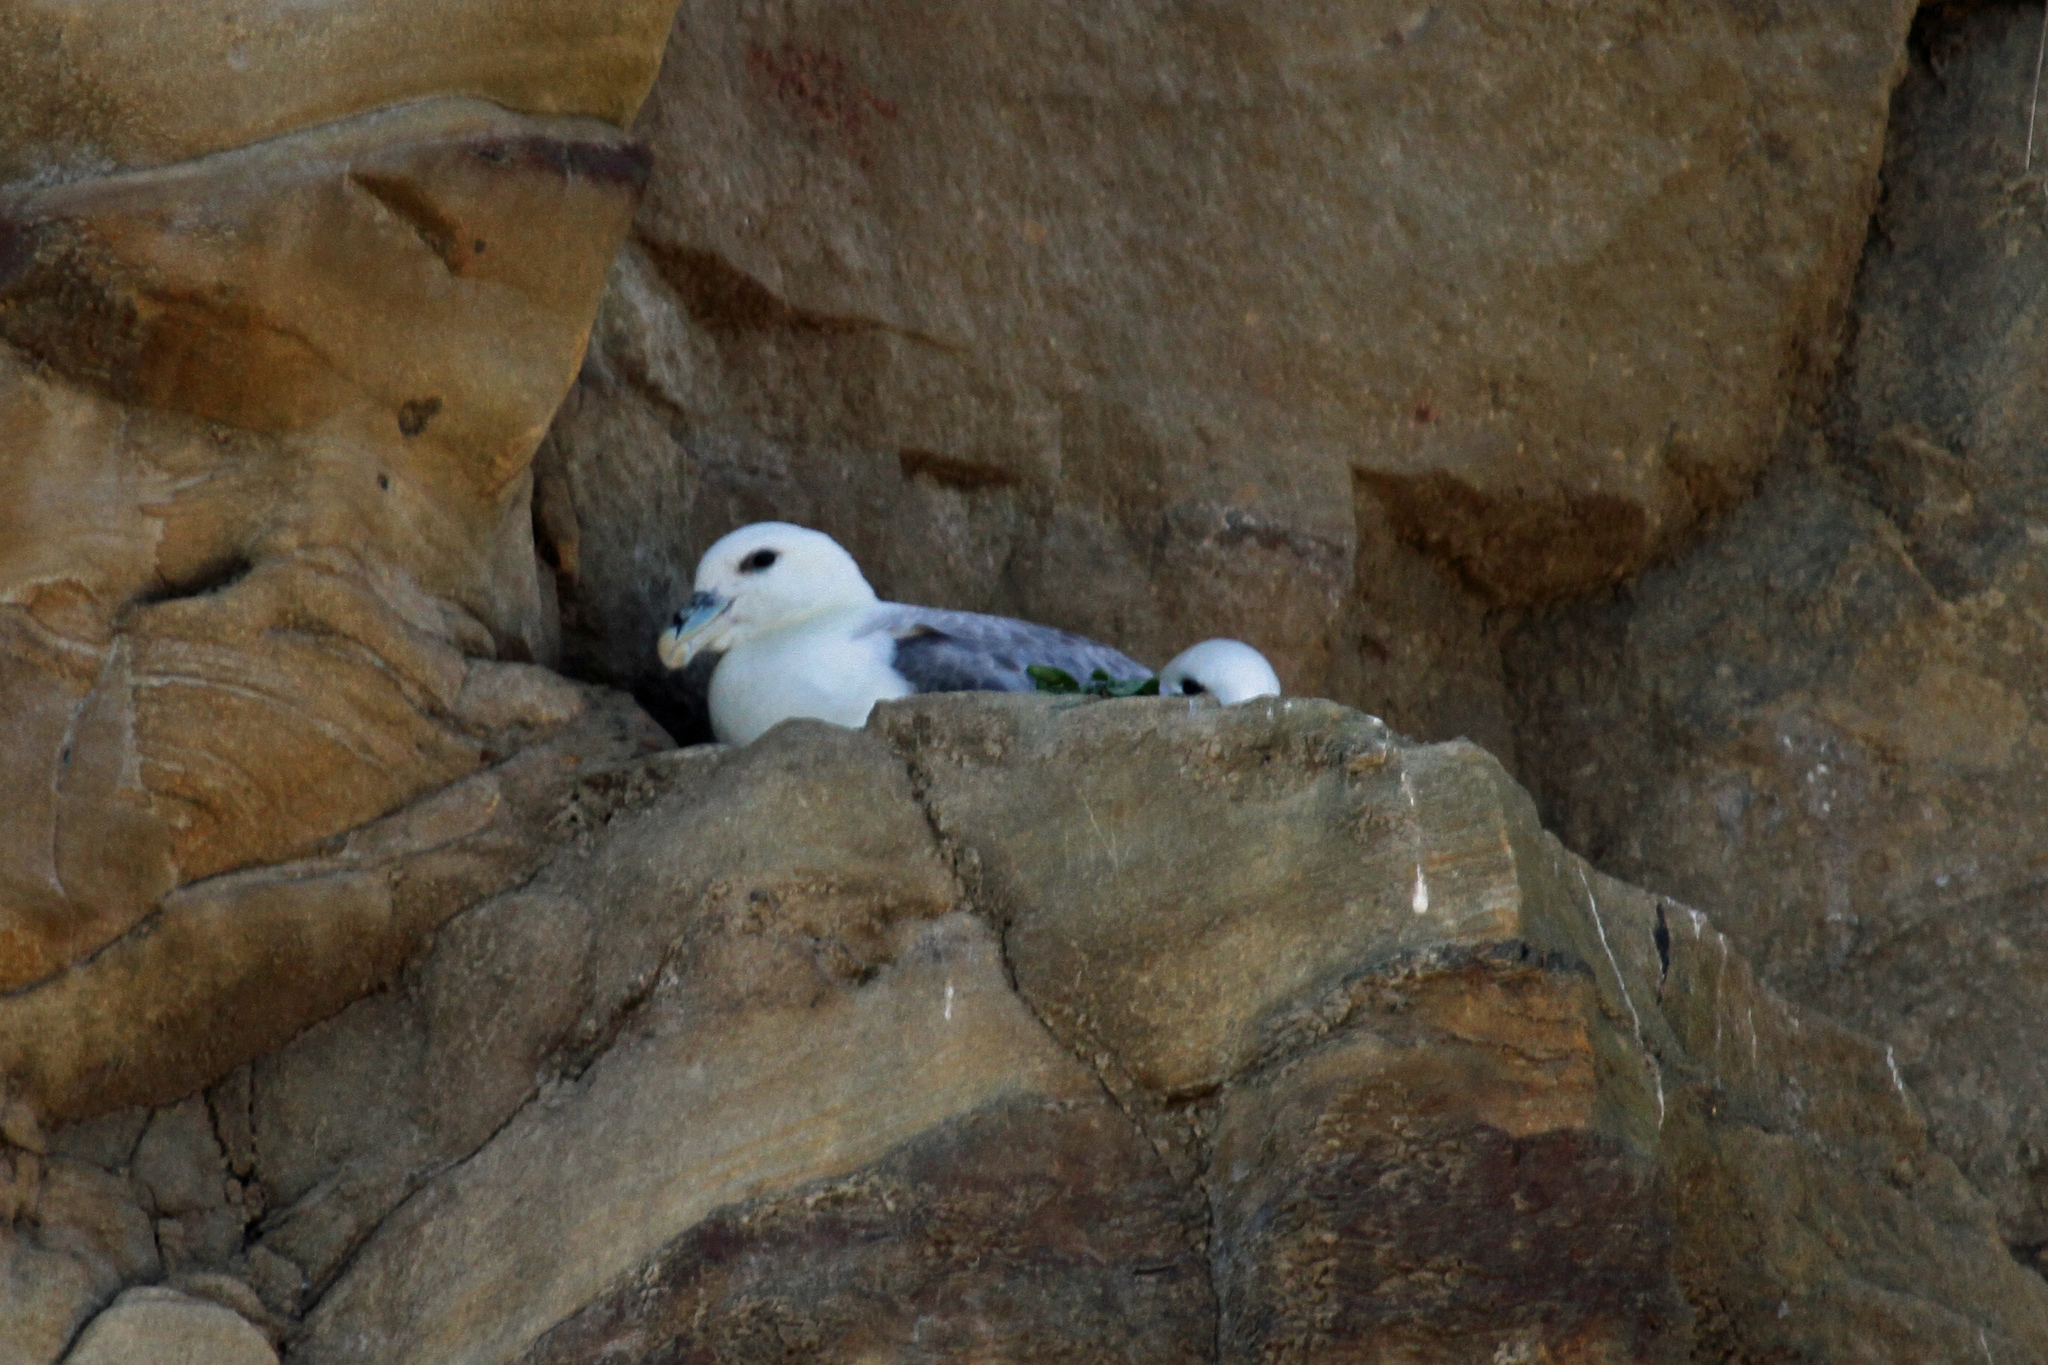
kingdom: Animalia
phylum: Chordata
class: Aves
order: Procellariiformes
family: Procellariidae
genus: Fulmarus
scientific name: Fulmarus glacialis
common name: Northern fulmar
